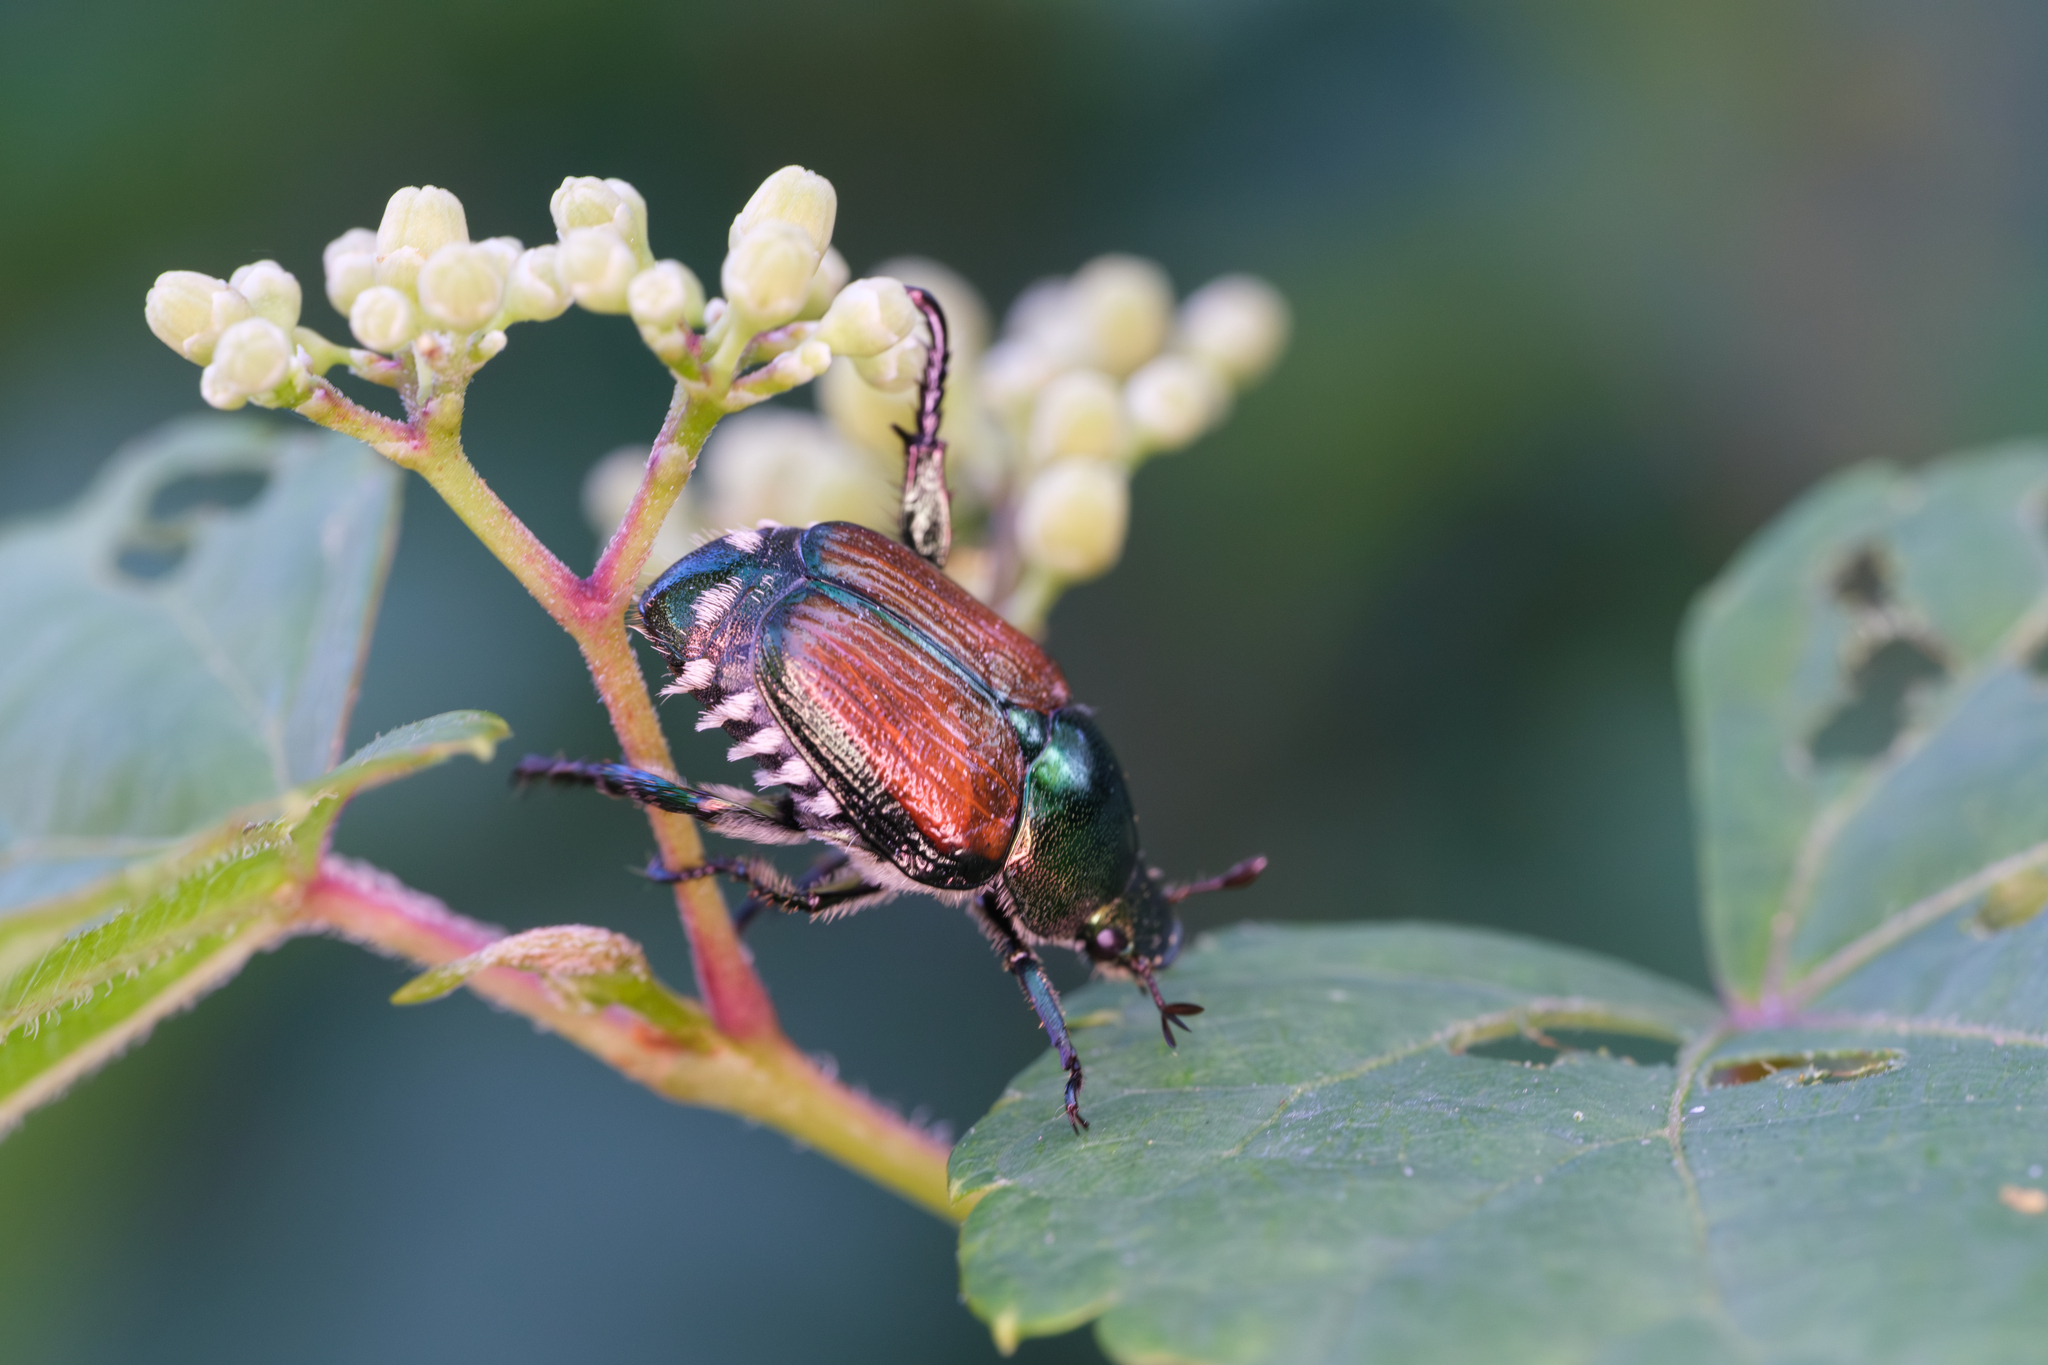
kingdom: Animalia
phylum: Arthropoda
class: Insecta
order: Coleoptera
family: Scarabaeidae
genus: Popillia
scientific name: Popillia japonica
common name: Japanese beetle
